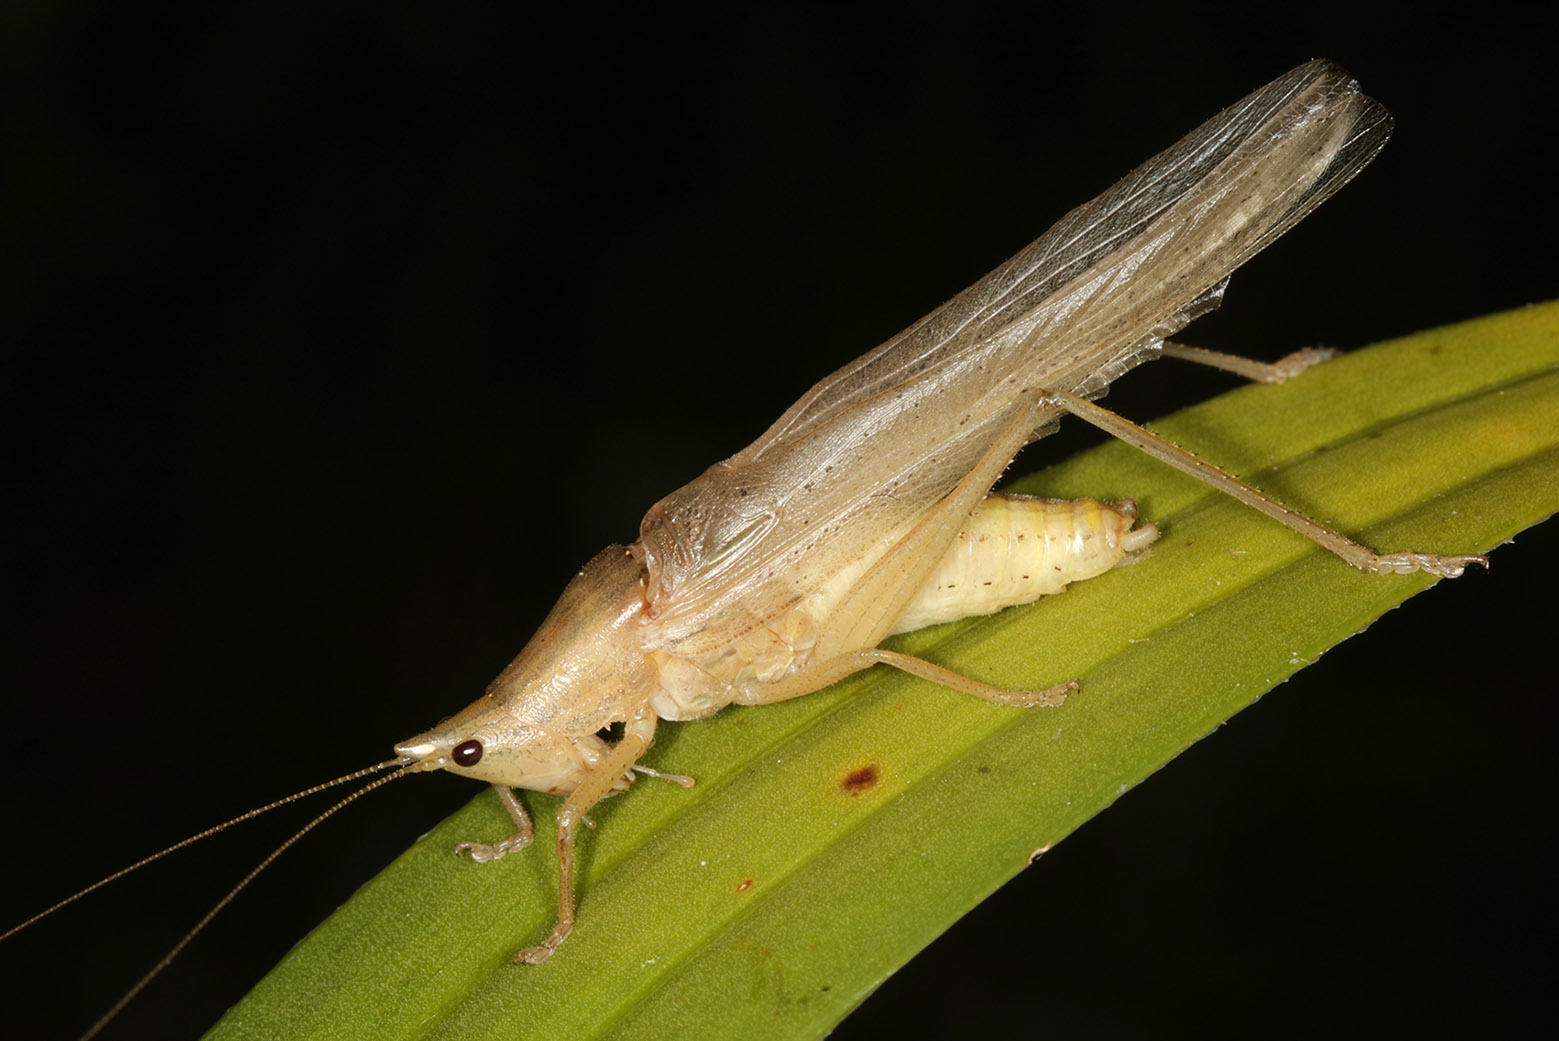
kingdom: Animalia
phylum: Arthropoda
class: Insecta
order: Orthoptera
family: Tettigoniidae
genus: Neoconocephalus
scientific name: Neoconocephalus globifrons
